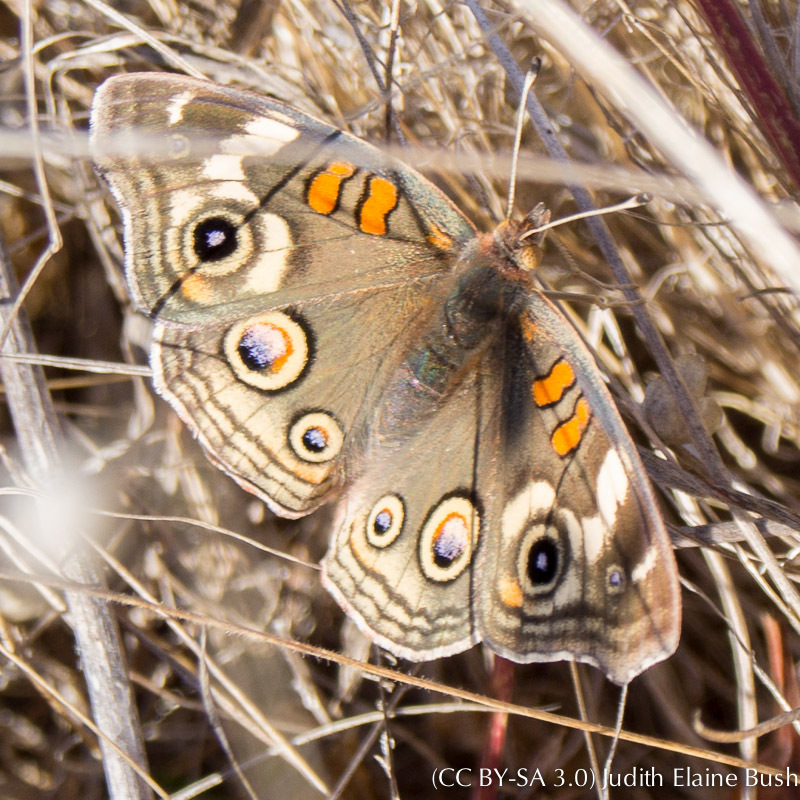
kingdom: Animalia
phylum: Arthropoda
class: Insecta
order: Lepidoptera
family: Nymphalidae
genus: Junonia
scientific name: Junonia grisea
